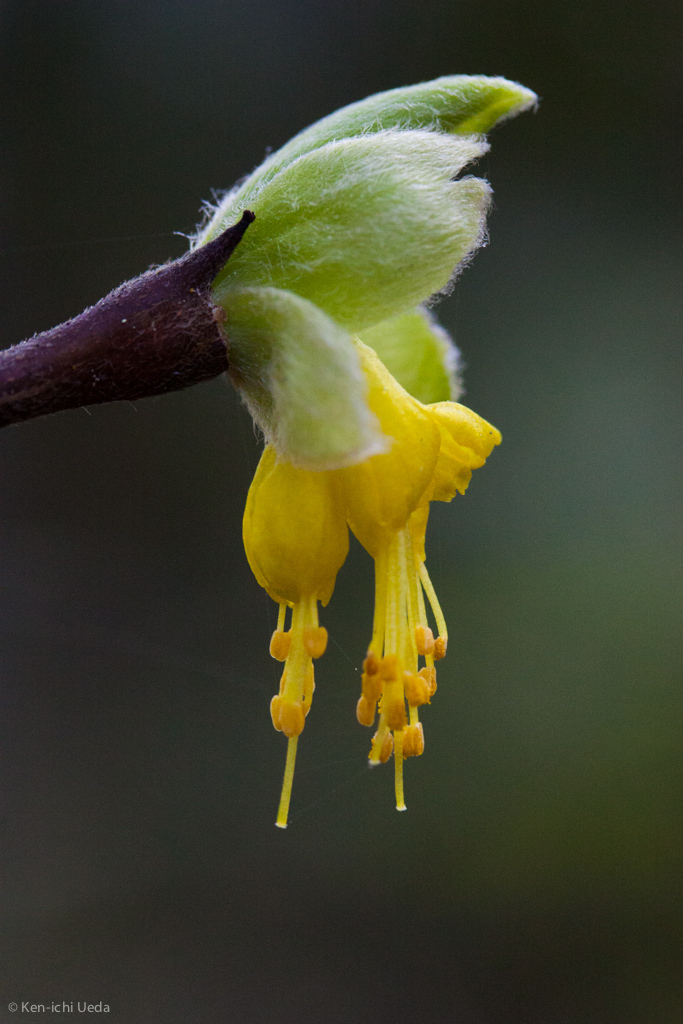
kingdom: Plantae
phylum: Tracheophyta
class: Magnoliopsida
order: Malvales
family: Thymelaeaceae
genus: Dirca
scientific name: Dirca occidentalis
